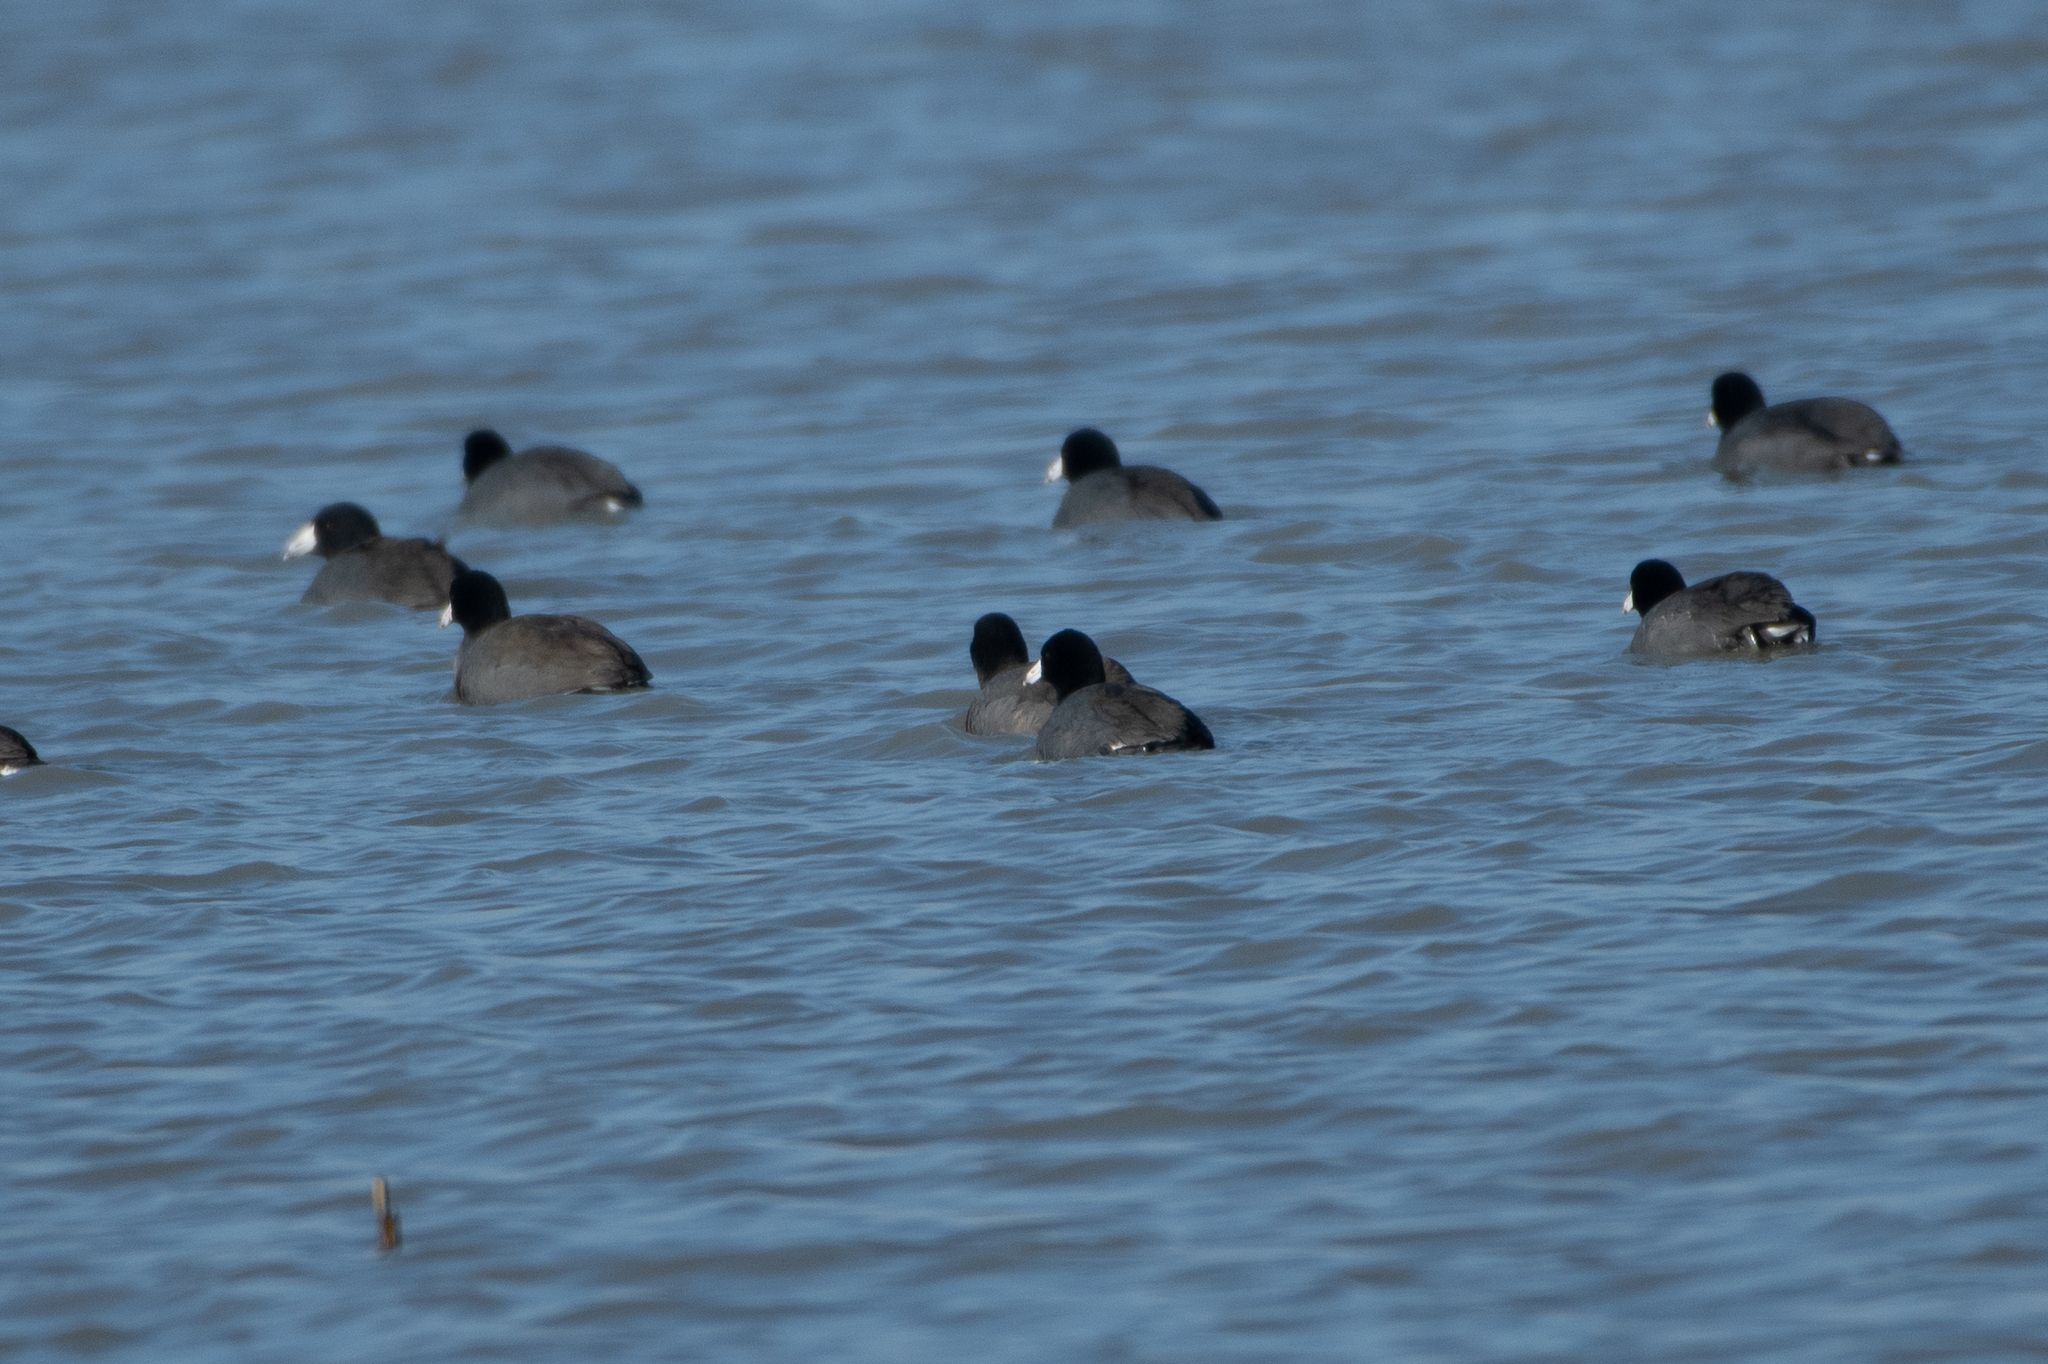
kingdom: Animalia
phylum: Chordata
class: Aves
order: Gruiformes
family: Rallidae
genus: Fulica
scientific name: Fulica americana
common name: American coot
